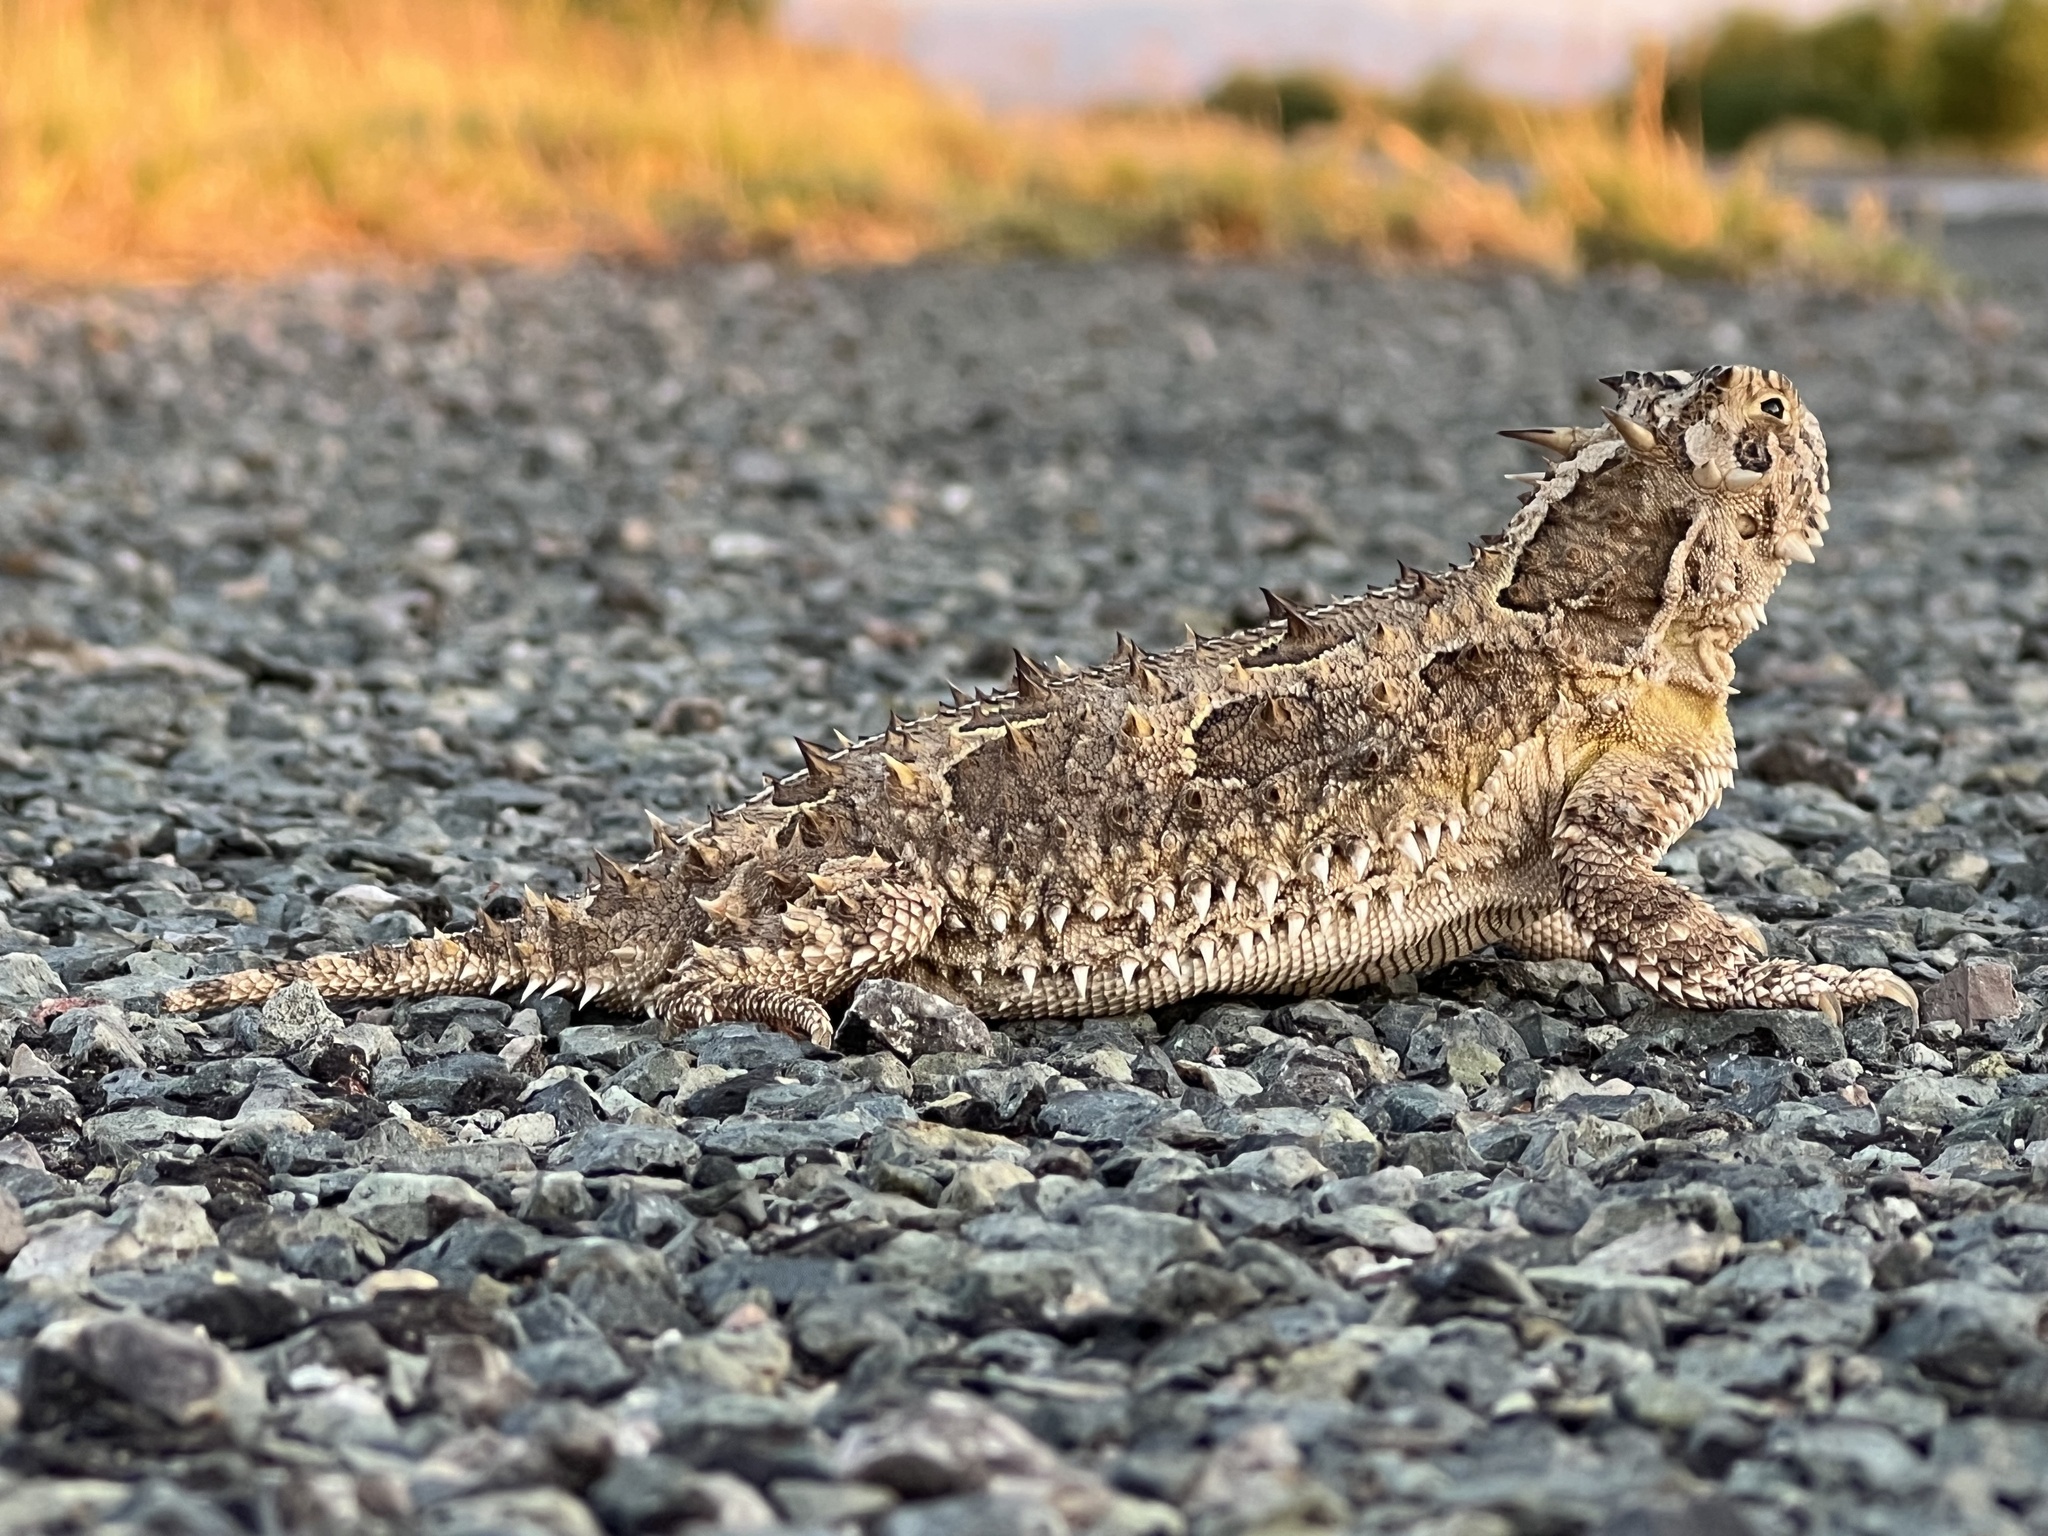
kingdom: Animalia
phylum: Chordata
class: Squamata
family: Phrynosomatidae
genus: Phrynosoma
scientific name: Phrynosoma cornutum
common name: Texas horned lizard
